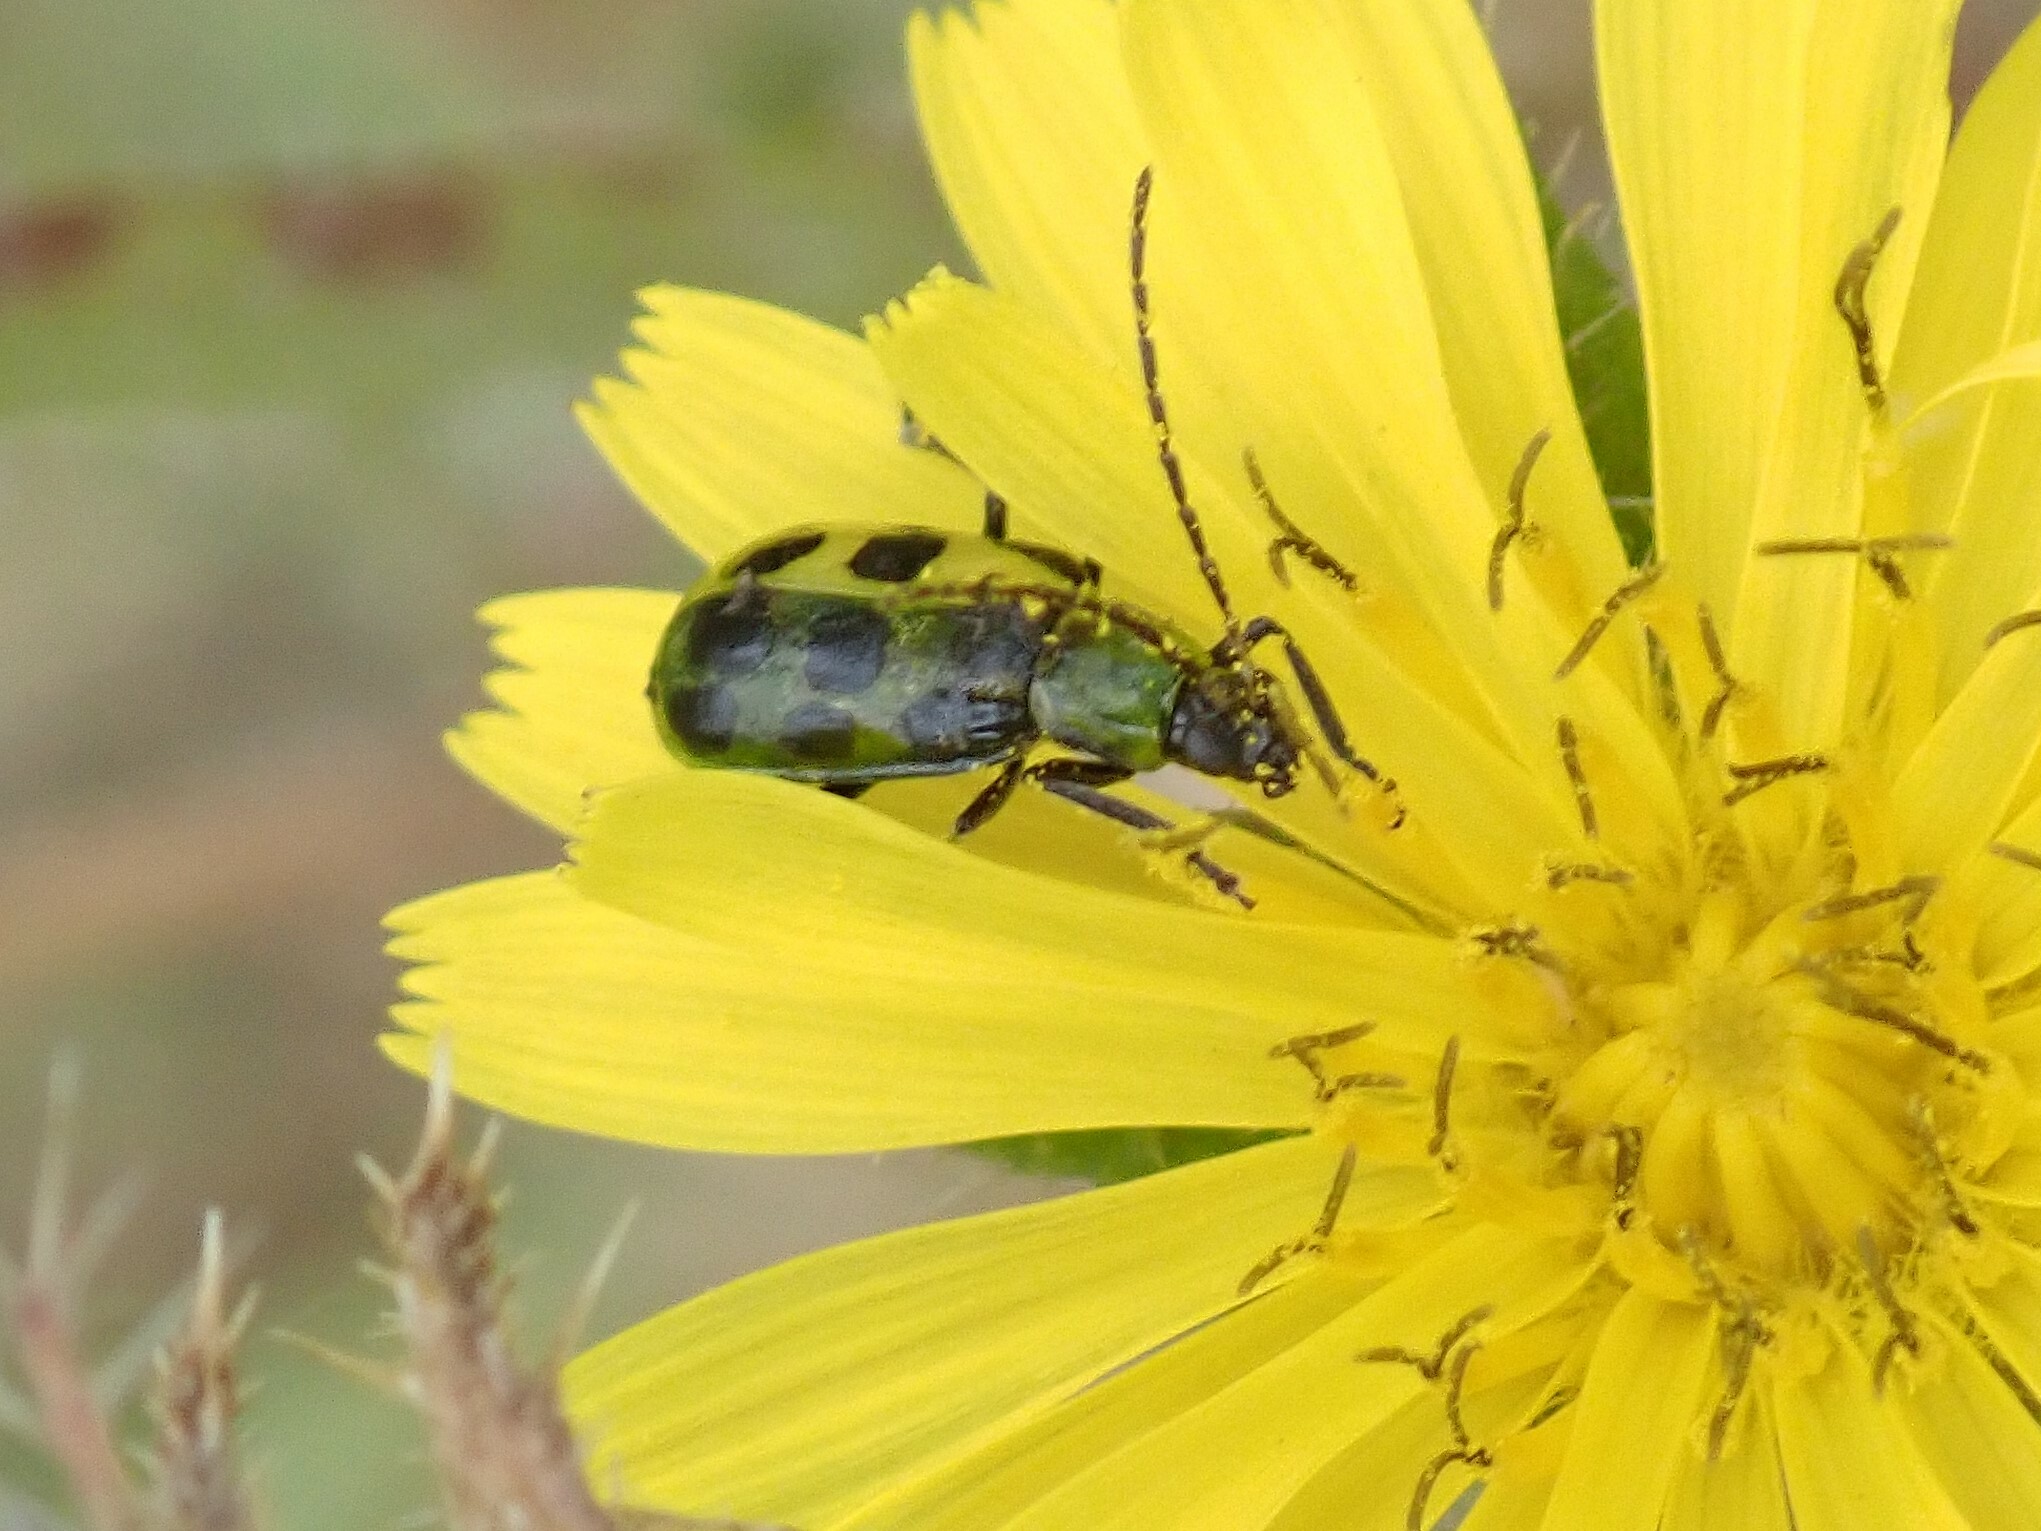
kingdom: Animalia
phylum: Arthropoda
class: Insecta
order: Coleoptera
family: Chrysomelidae
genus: Diabrotica
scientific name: Diabrotica undecimpunctata
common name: Spotted cucumber beetle
